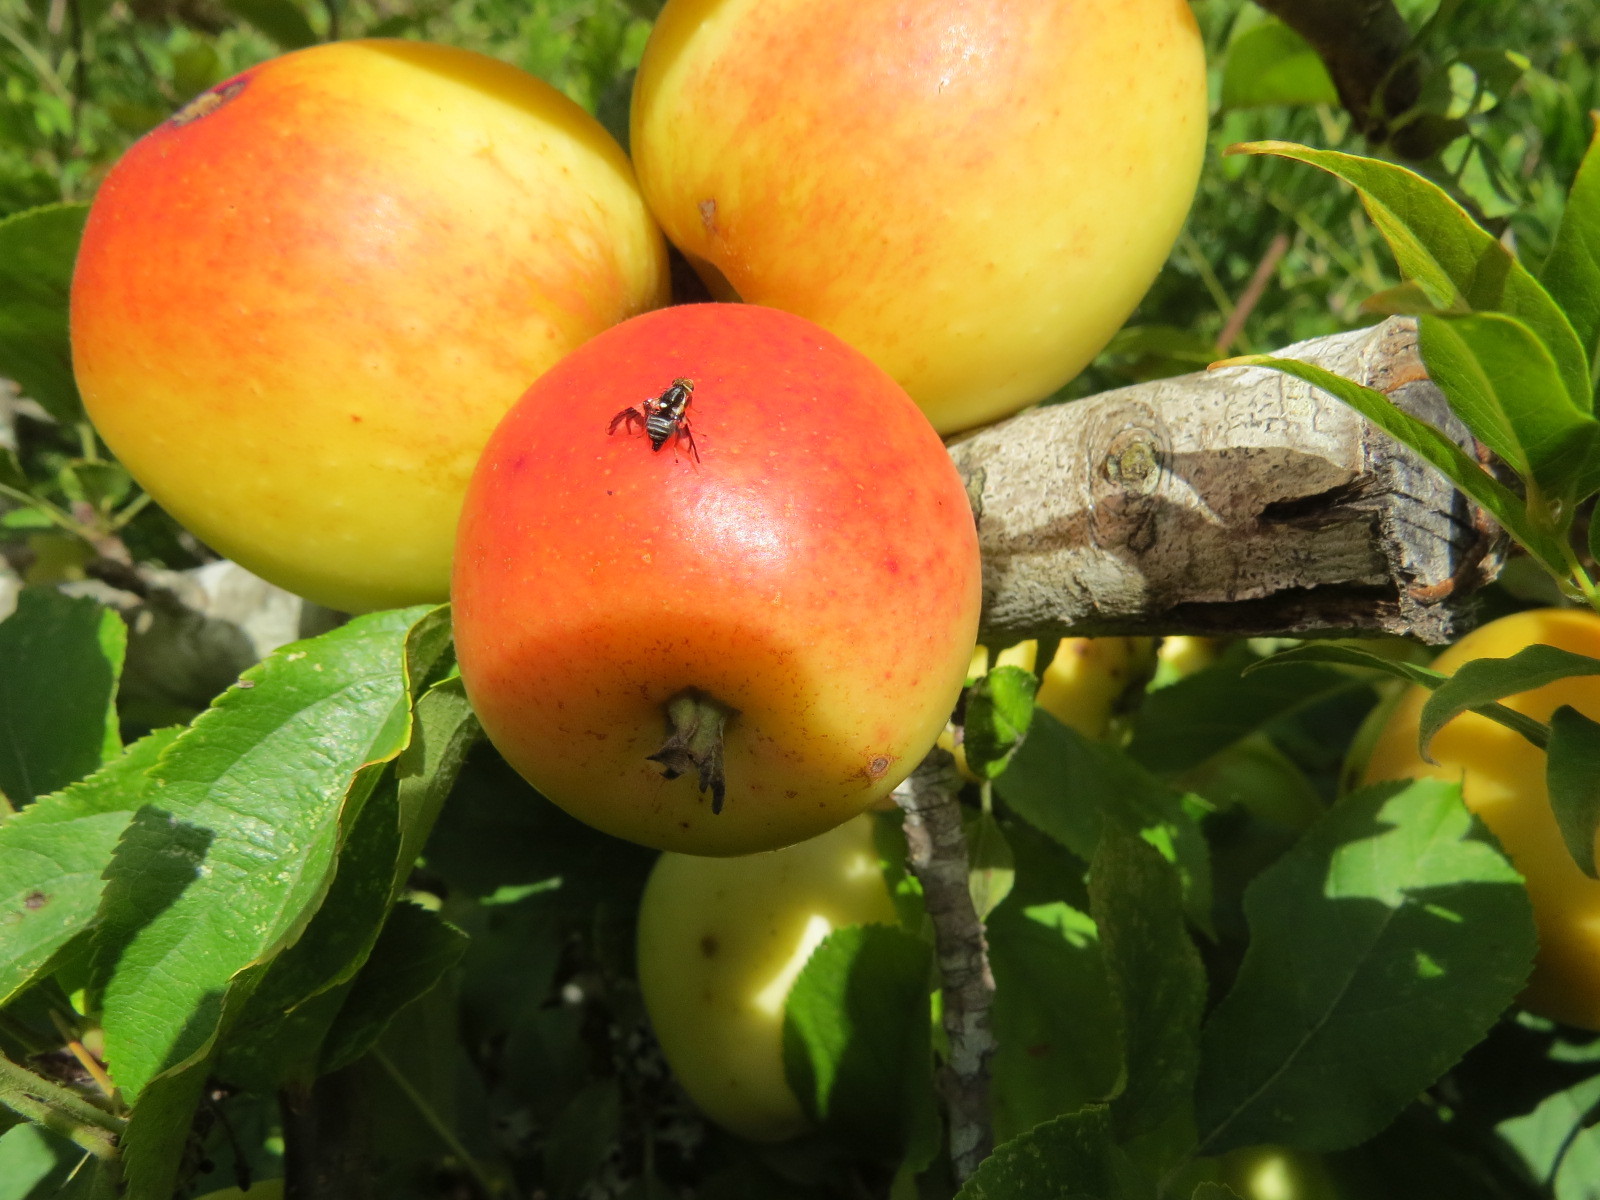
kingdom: Animalia
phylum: Arthropoda
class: Insecta
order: Diptera
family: Tephritidae
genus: Rhagoletis
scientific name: Rhagoletis pomonella
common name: Apple maggot
